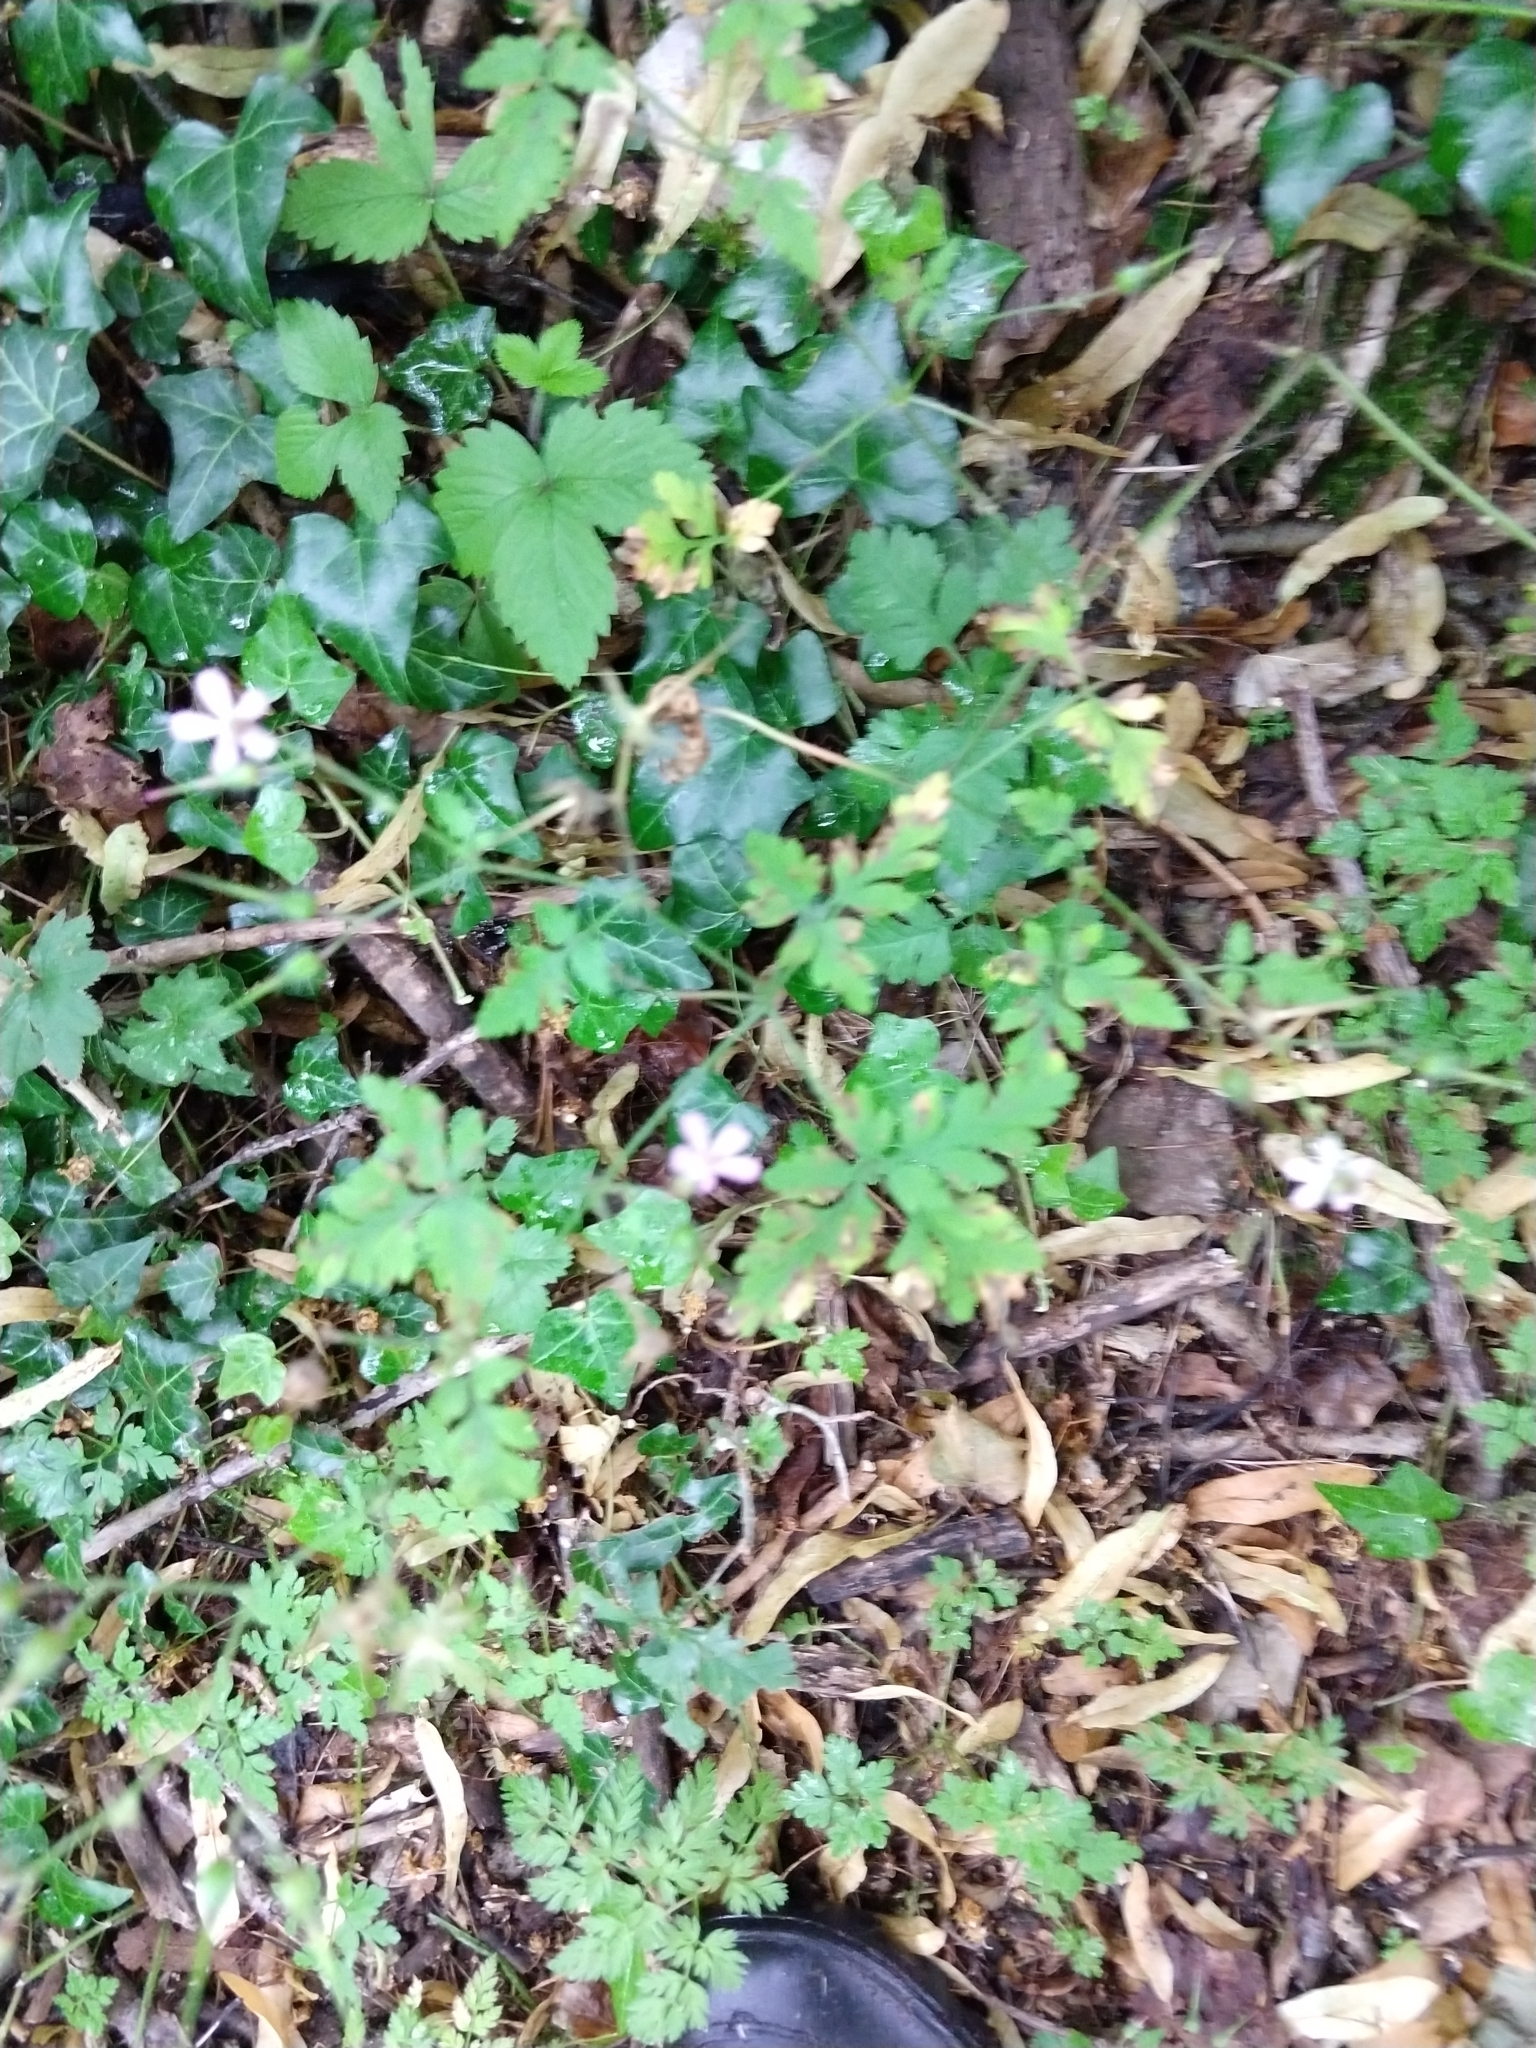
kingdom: Plantae
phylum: Tracheophyta
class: Magnoliopsida
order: Geraniales
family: Geraniaceae
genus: Geranium
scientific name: Geranium robertianum
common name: Herb-robert
